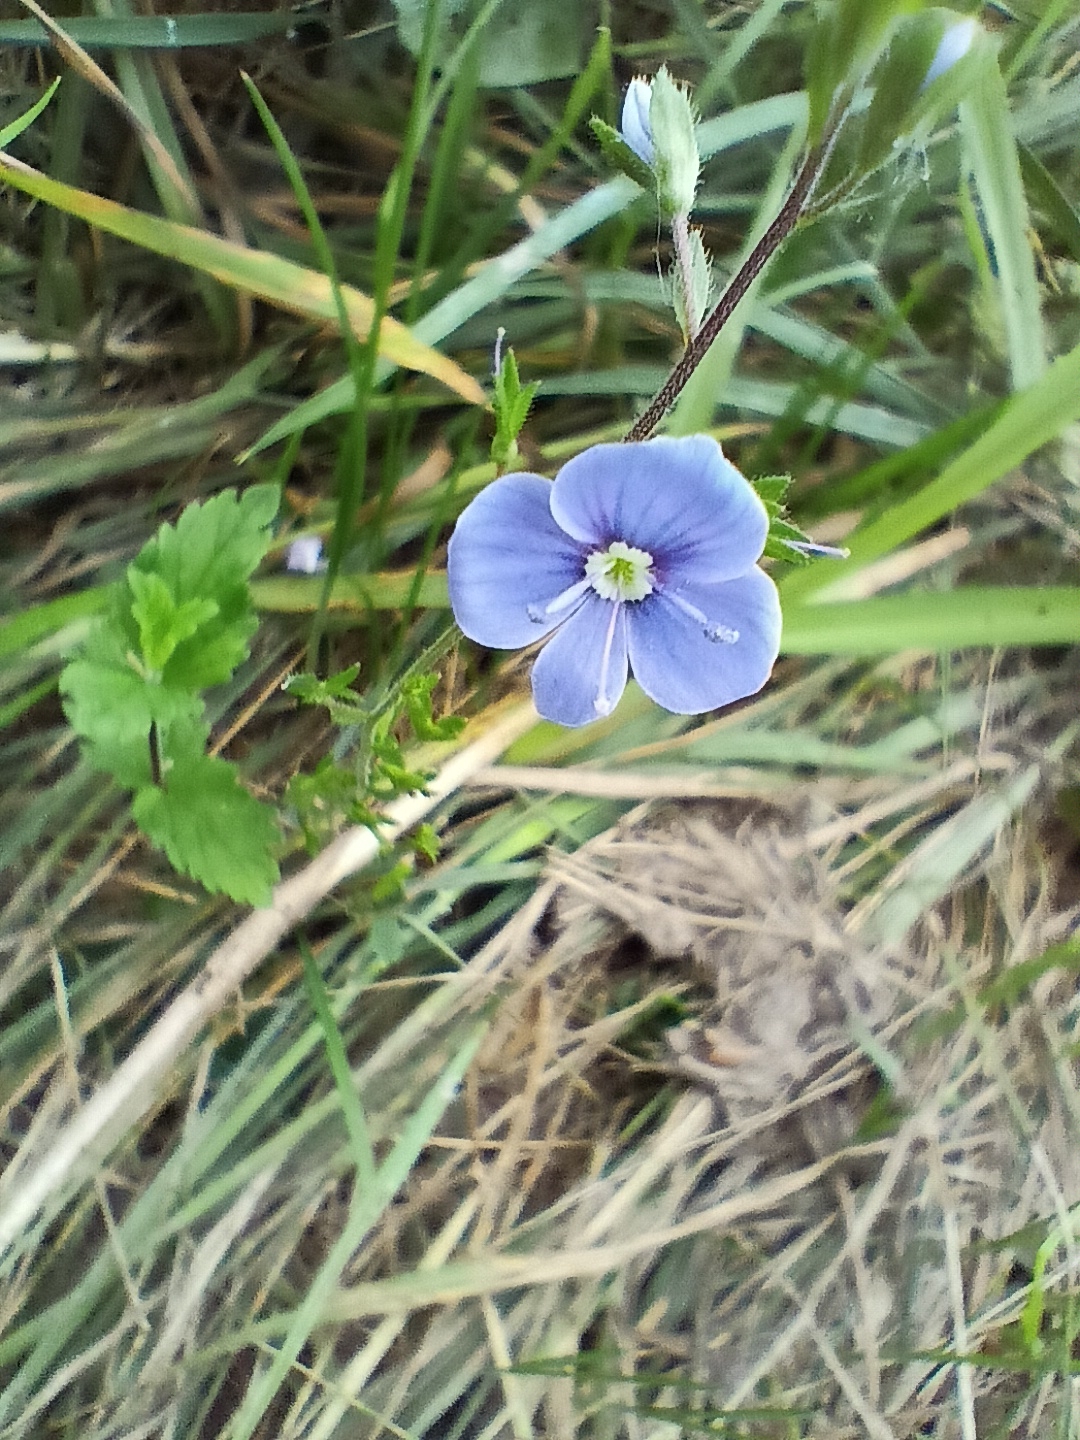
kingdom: Plantae
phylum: Tracheophyta
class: Magnoliopsida
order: Lamiales
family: Plantaginaceae
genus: Veronica
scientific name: Veronica chamaedrys
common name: Germander speedwell
